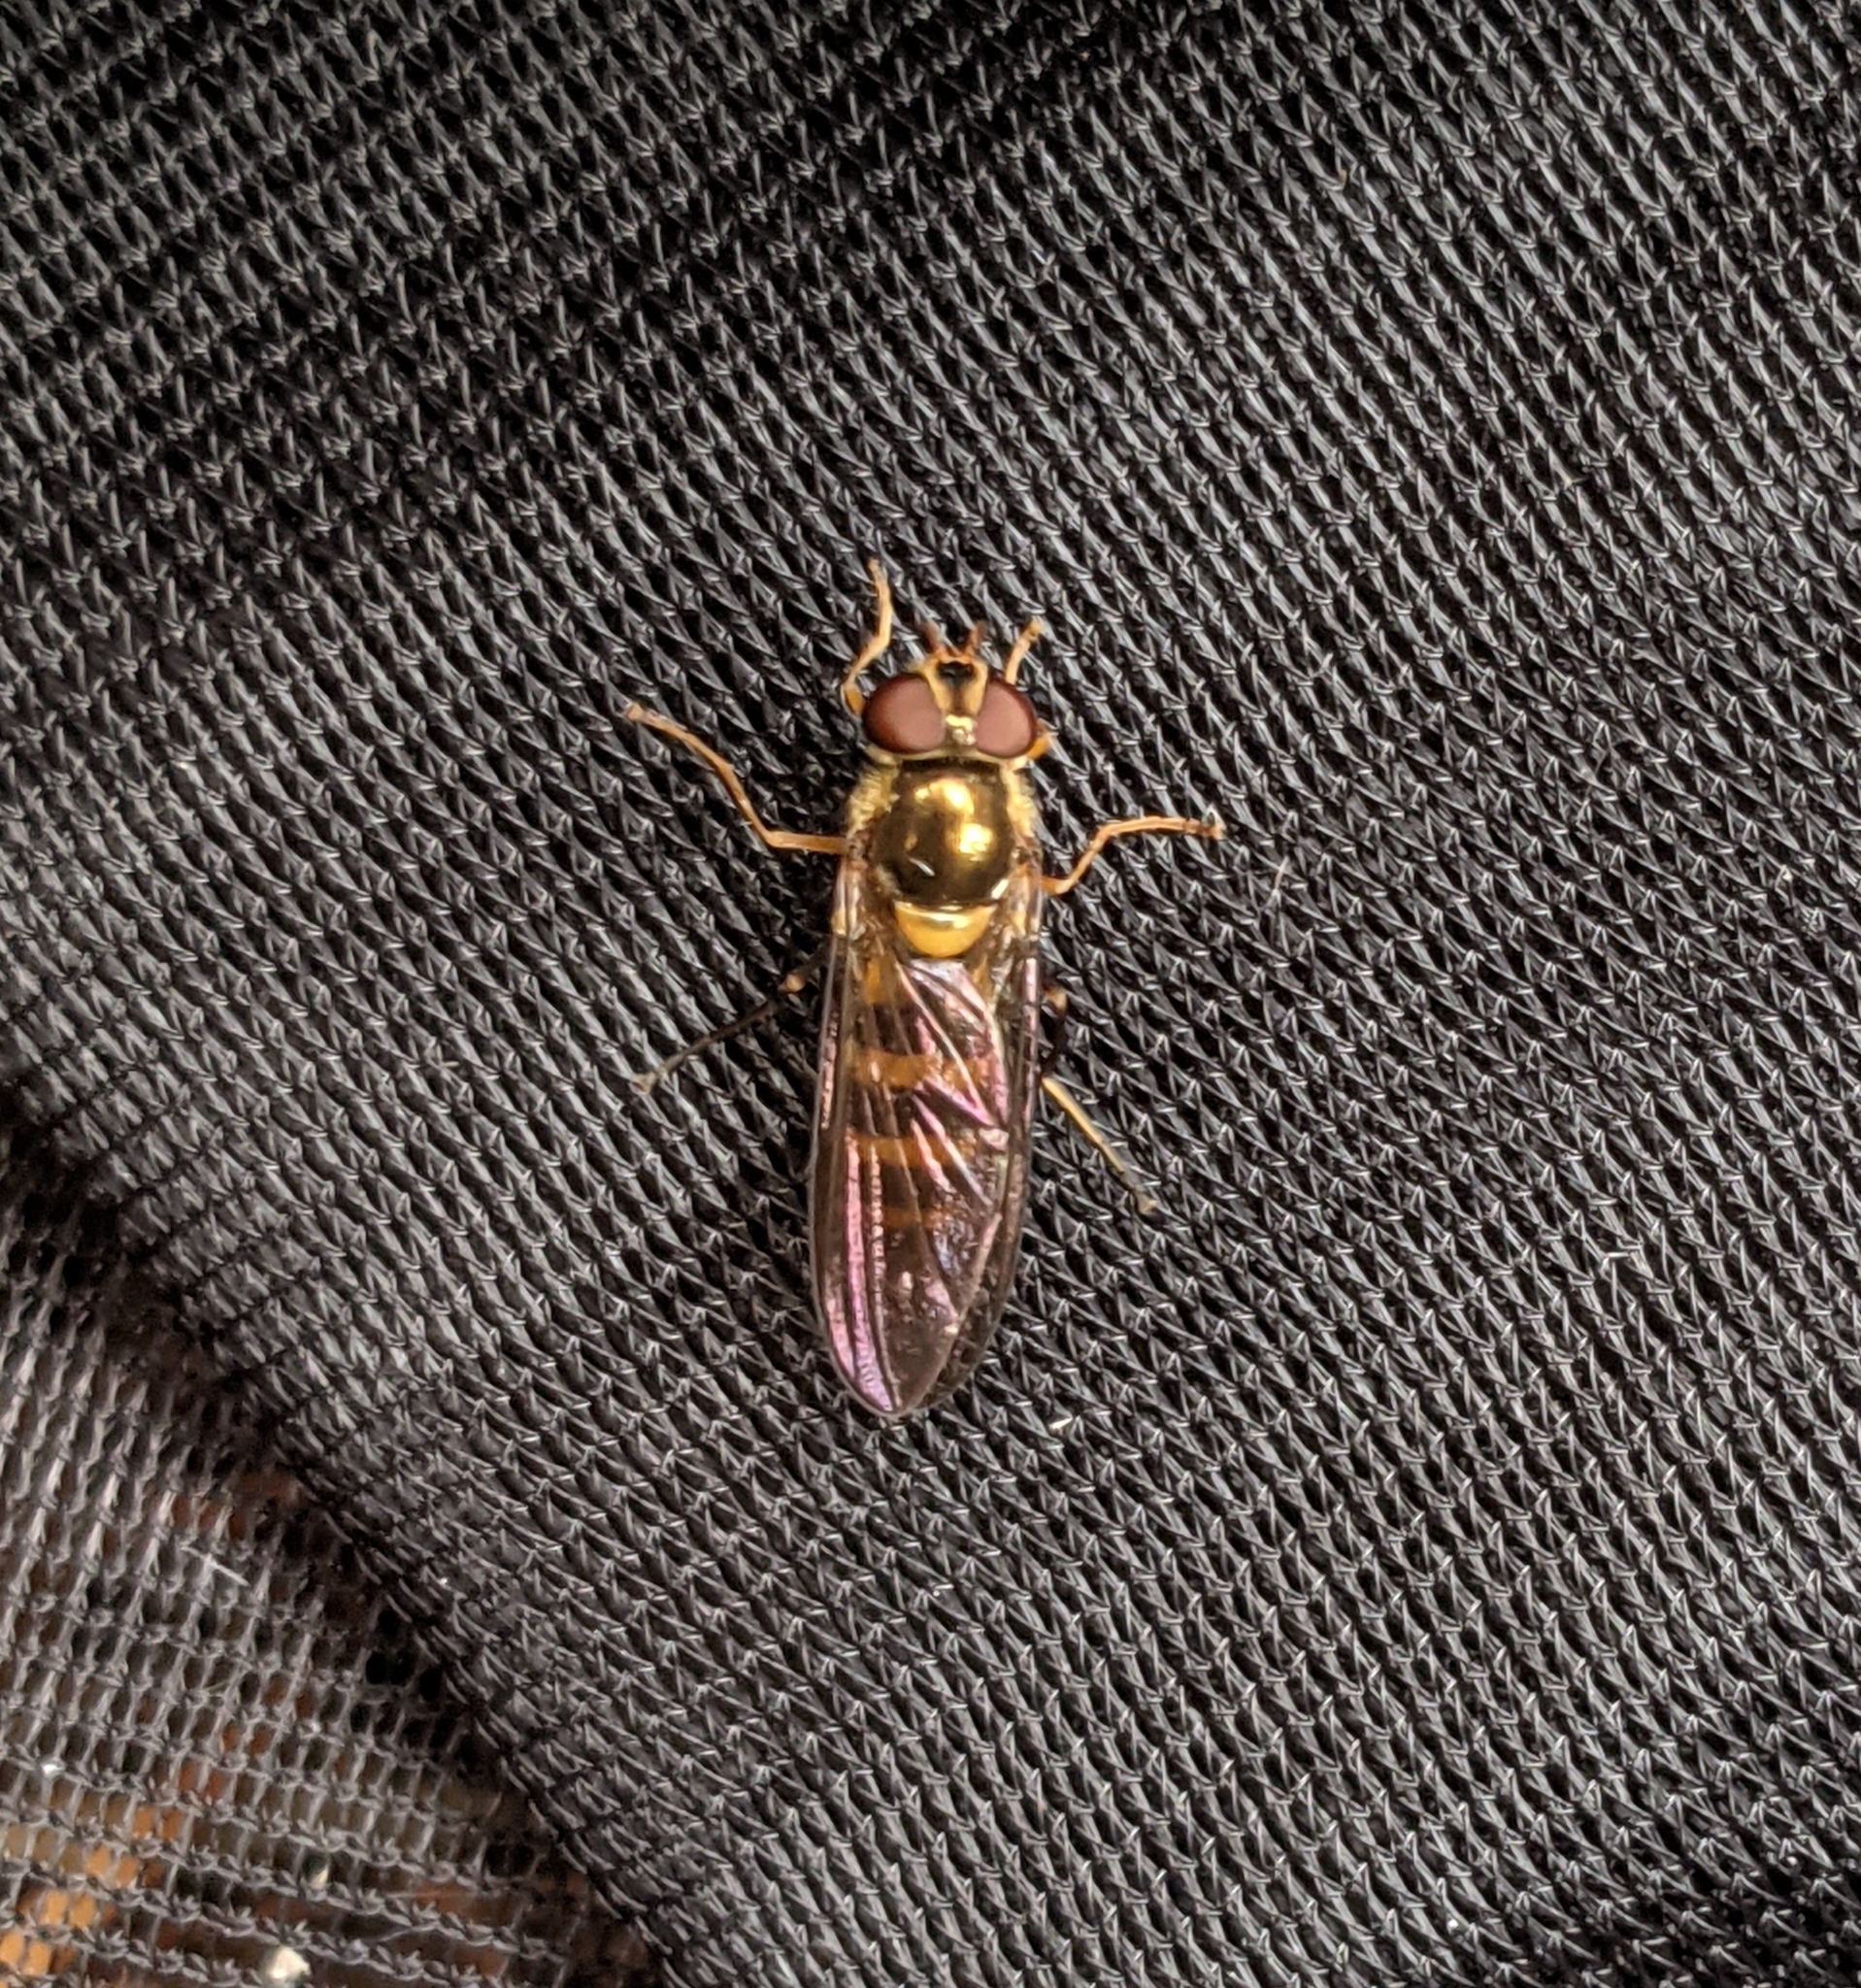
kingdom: Animalia
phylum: Arthropoda
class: Insecta
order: Diptera
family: Syrphidae
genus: Meliscaeva
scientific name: Meliscaeva cinctella
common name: American thintail fly
